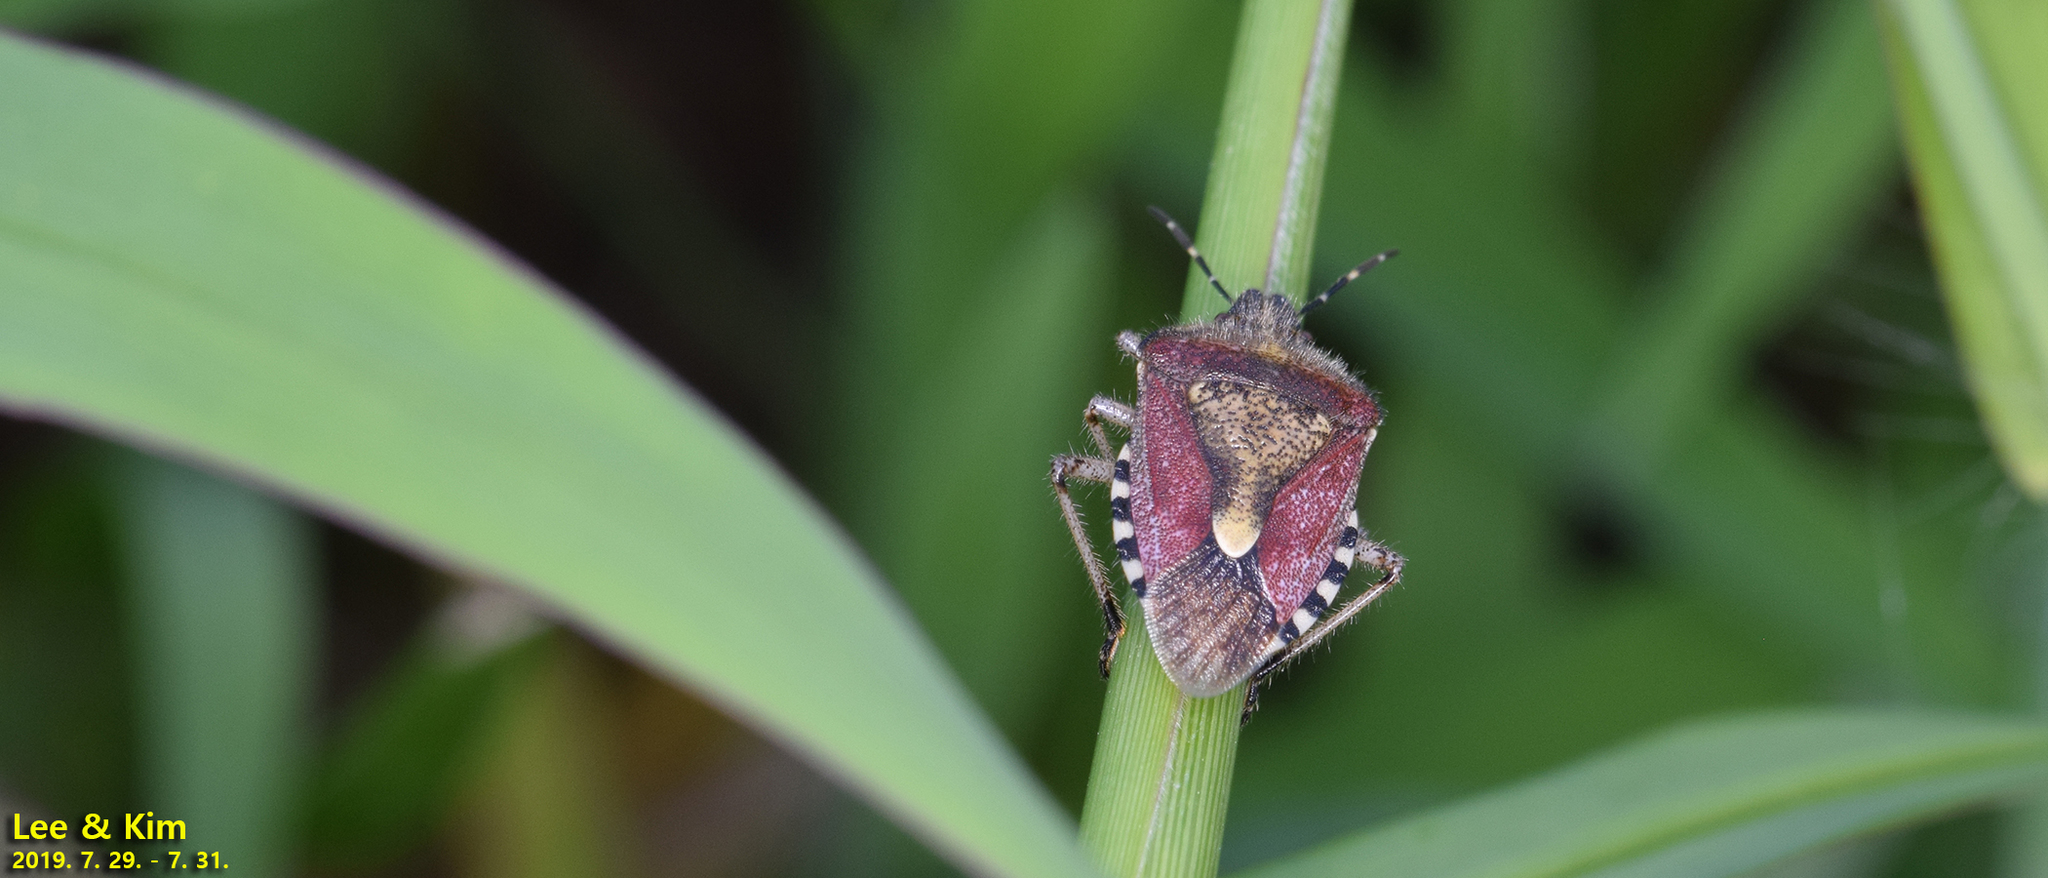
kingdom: Animalia
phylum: Arthropoda
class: Insecta
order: Hemiptera
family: Pentatomidae
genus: Dolycoris
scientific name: Dolycoris baccarum
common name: Sloe bug
